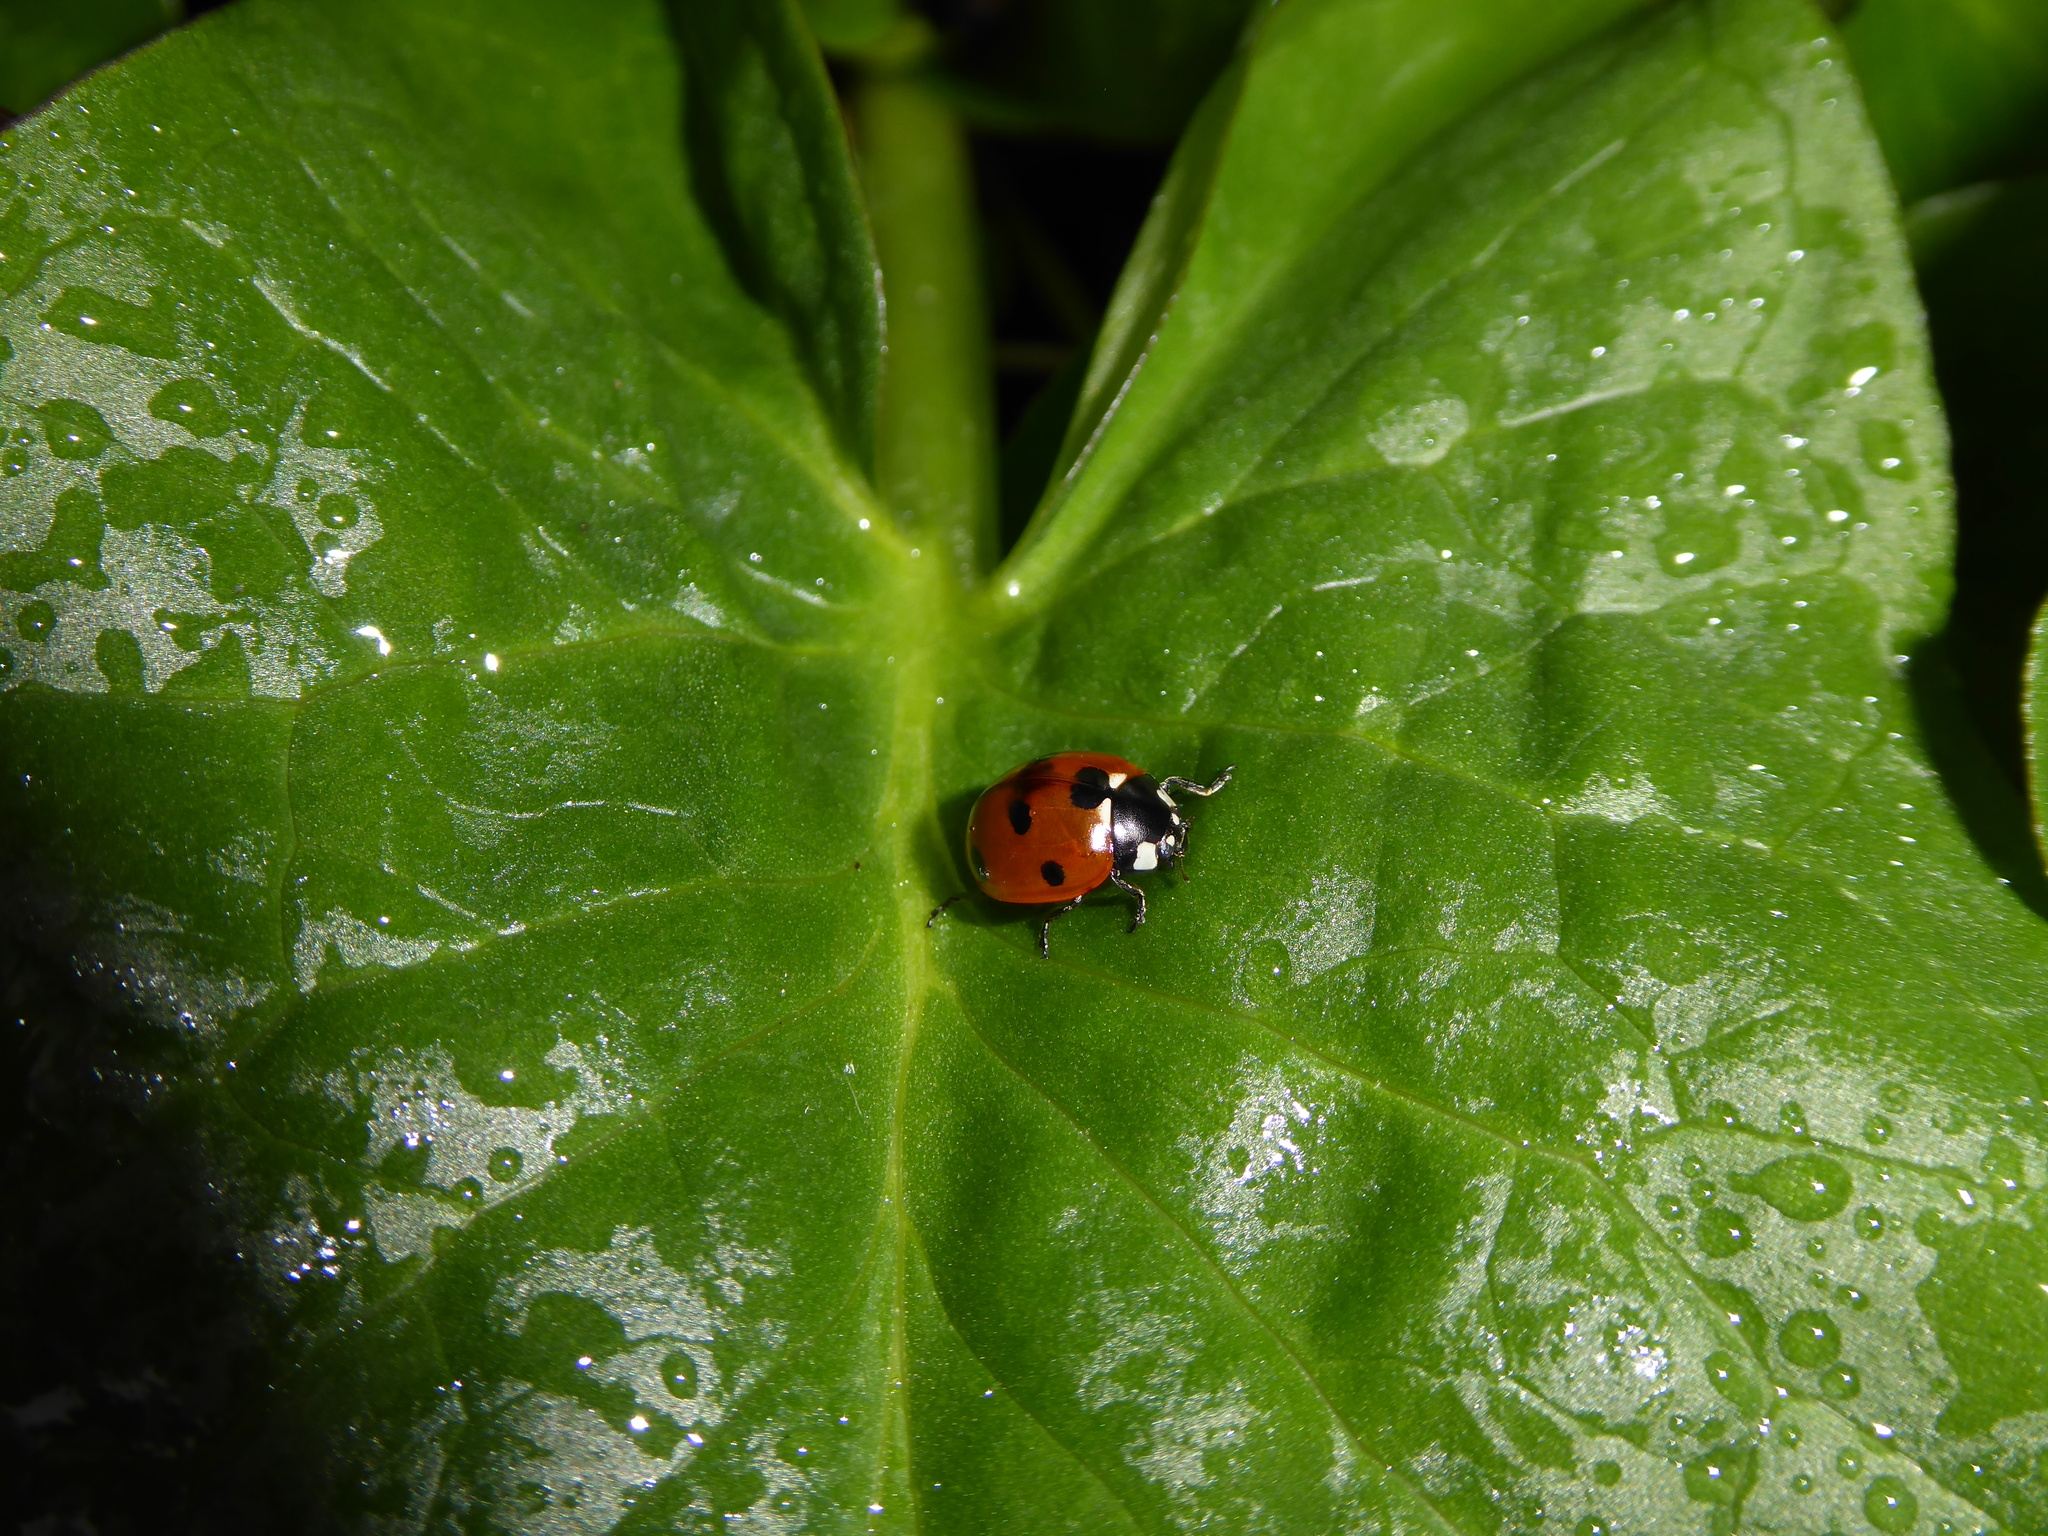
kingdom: Animalia
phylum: Arthropoda
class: Insecta
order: Coleoptera
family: Coccinellidae
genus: Coccinella
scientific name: Coccinella septempunctata
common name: Sevenspotted lady beetle
